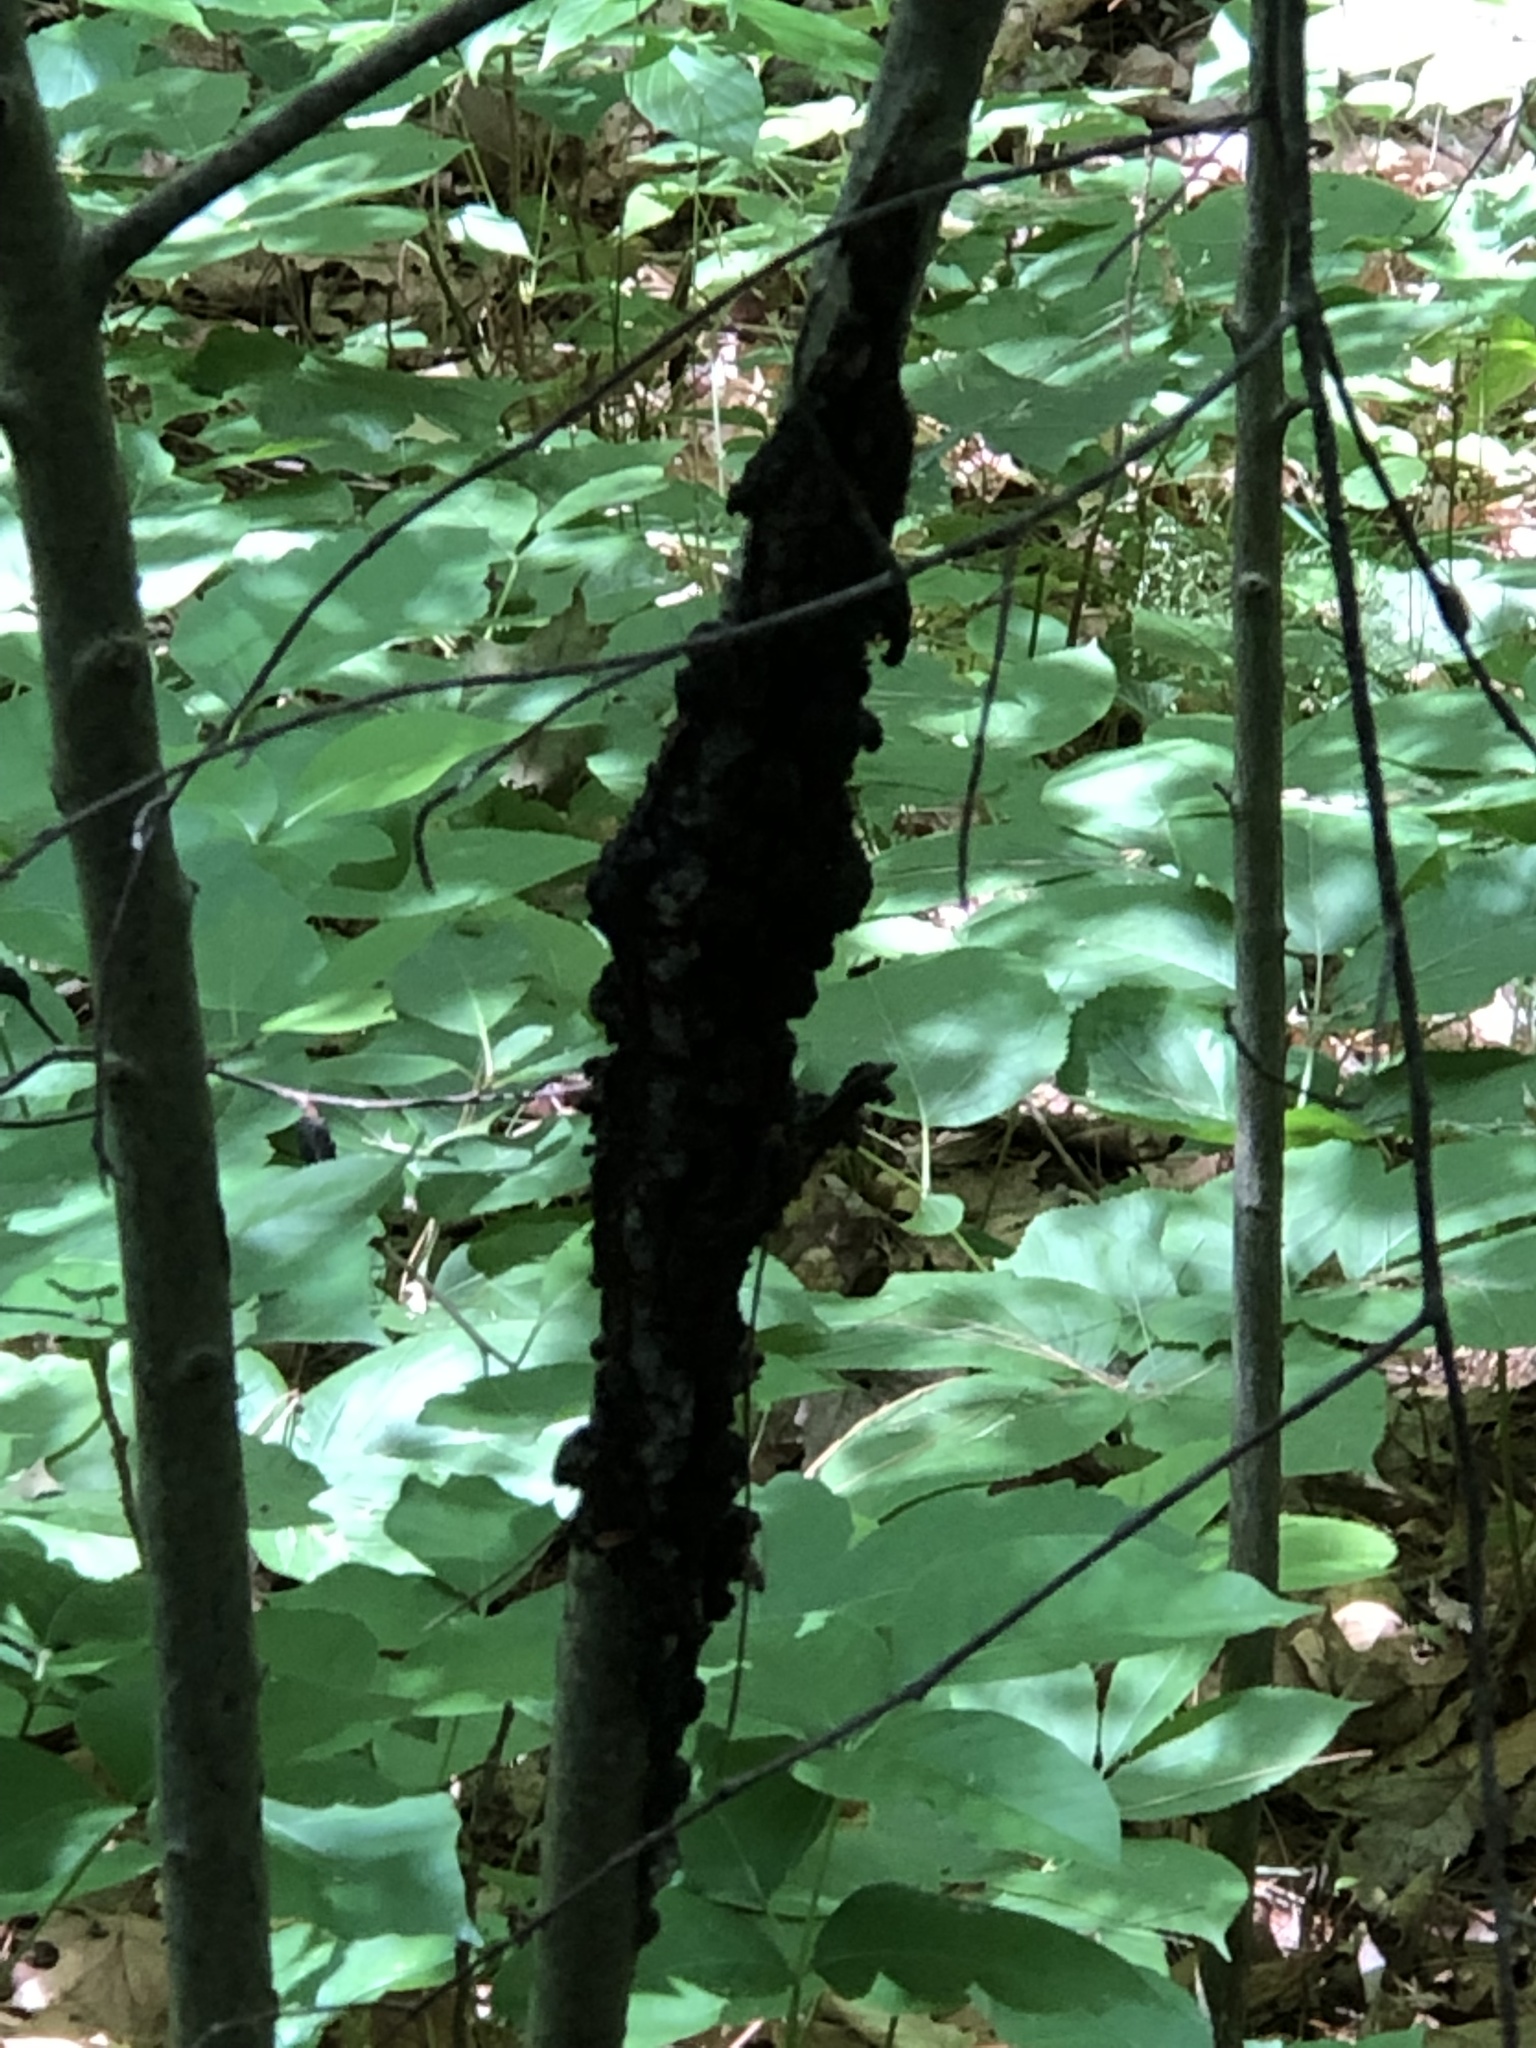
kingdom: Fungi
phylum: Ascomycota
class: Dothideomycetes
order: Venturiales
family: Venturiaceae
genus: Apiosporina
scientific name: Apiosporina morbosa
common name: Black knot
